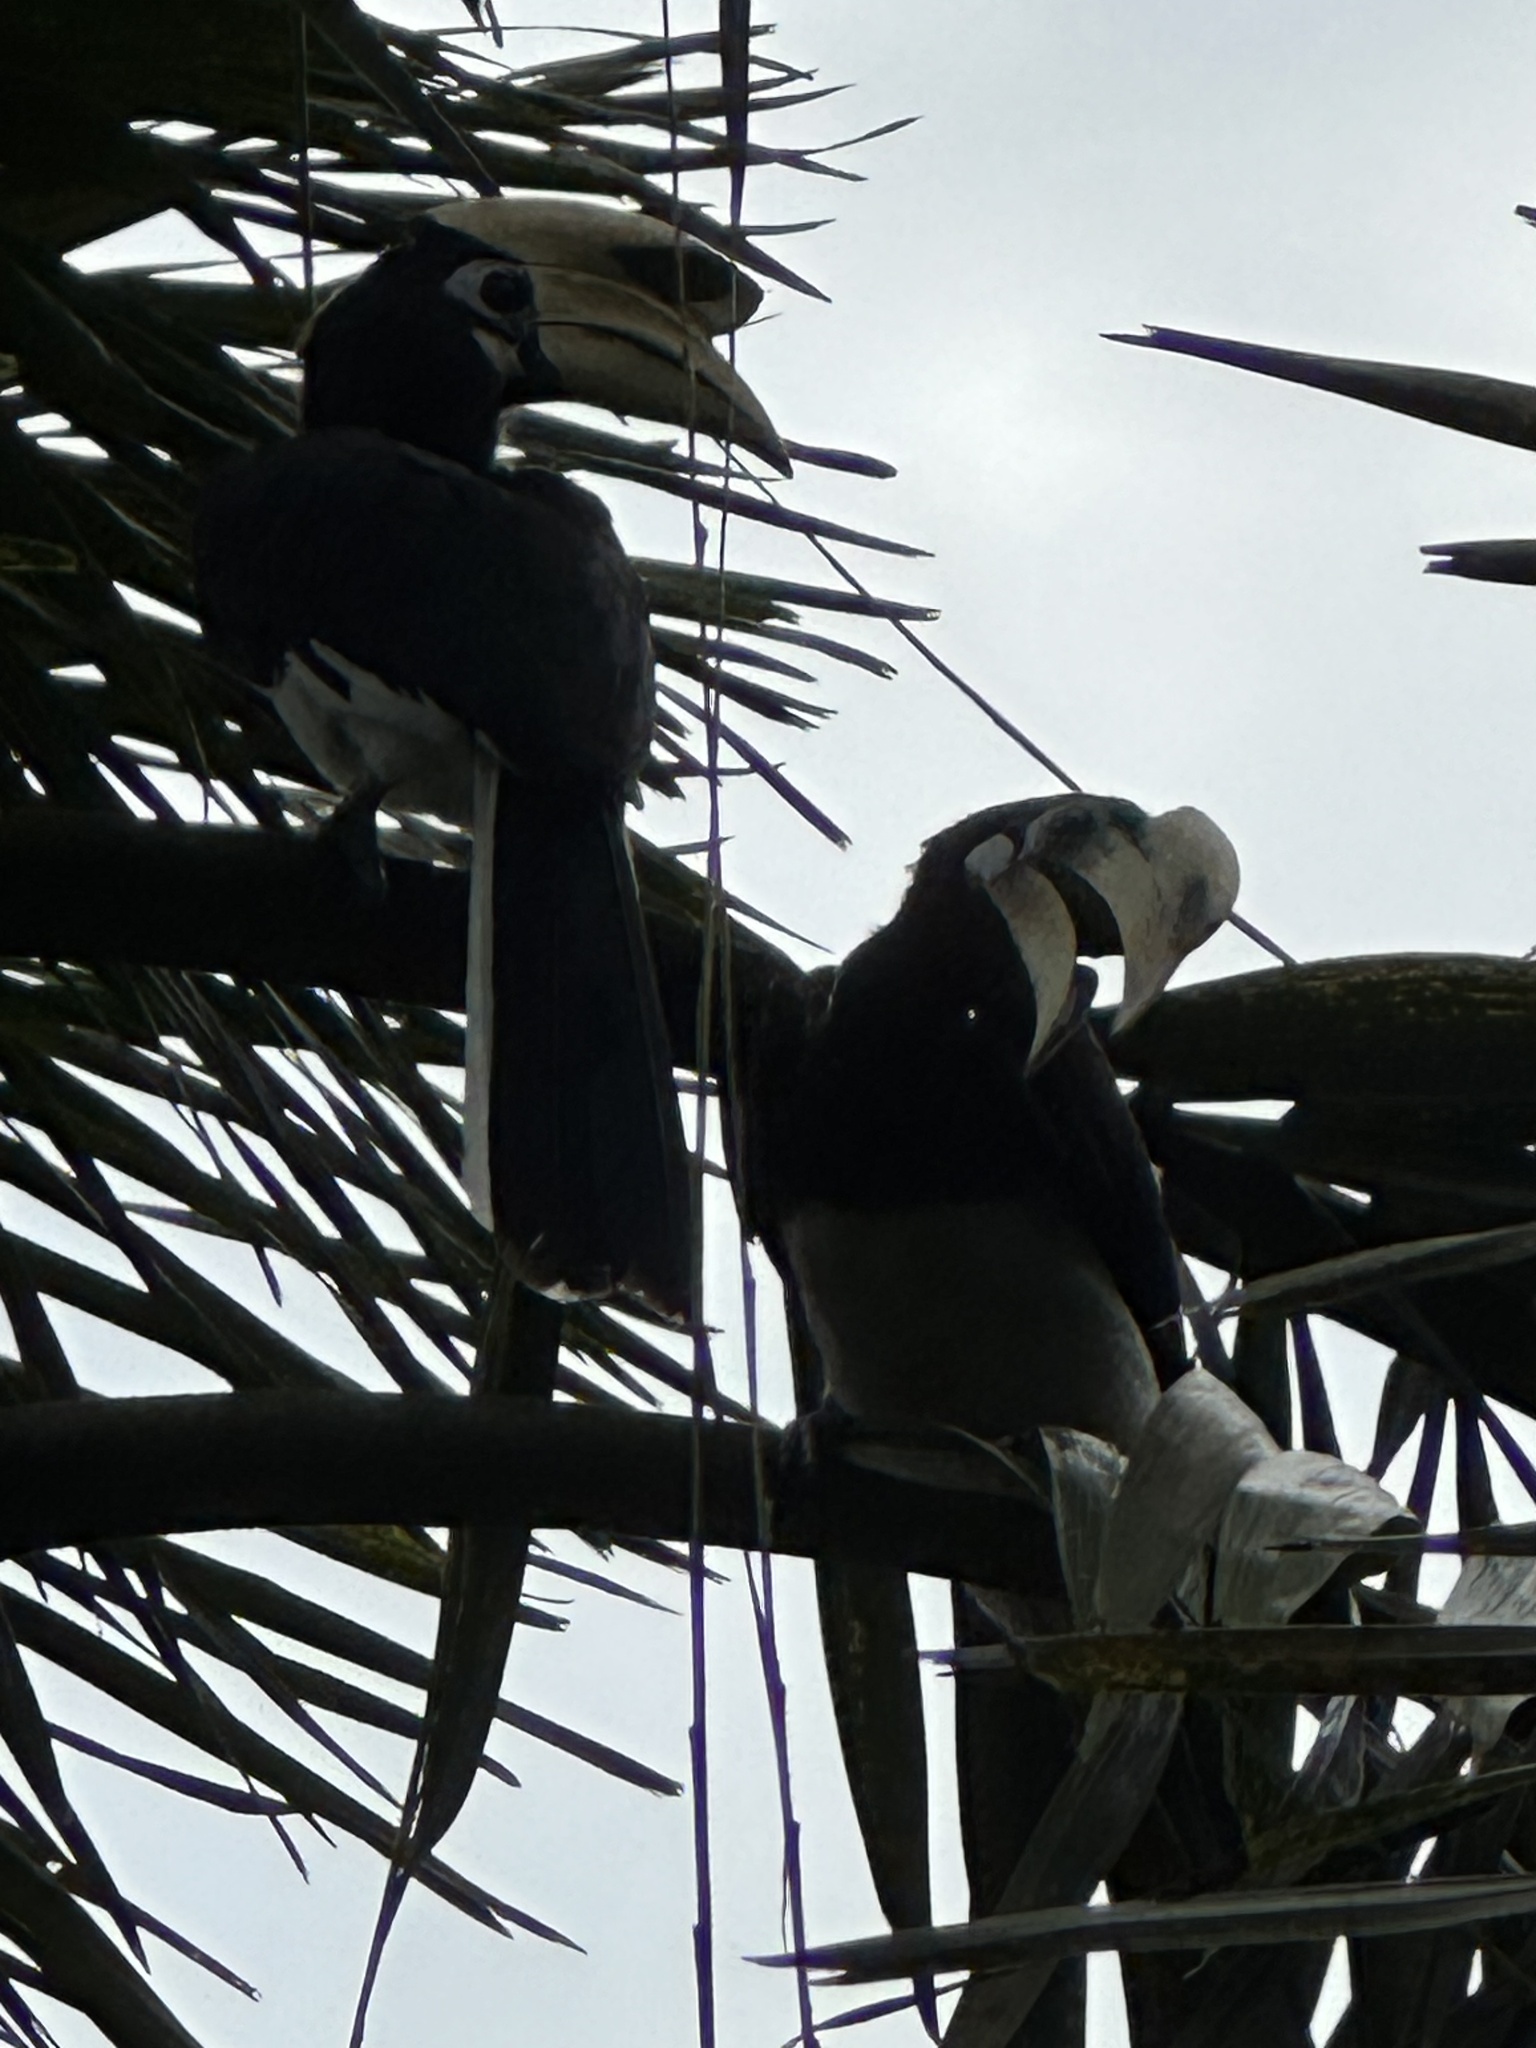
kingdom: Animalia
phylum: Chordata
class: Aves
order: Bucerotiformes
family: Bucerotidae
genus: Anthracoceros
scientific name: Anthracoceros albirostris
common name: Oriental pied-hornbill
